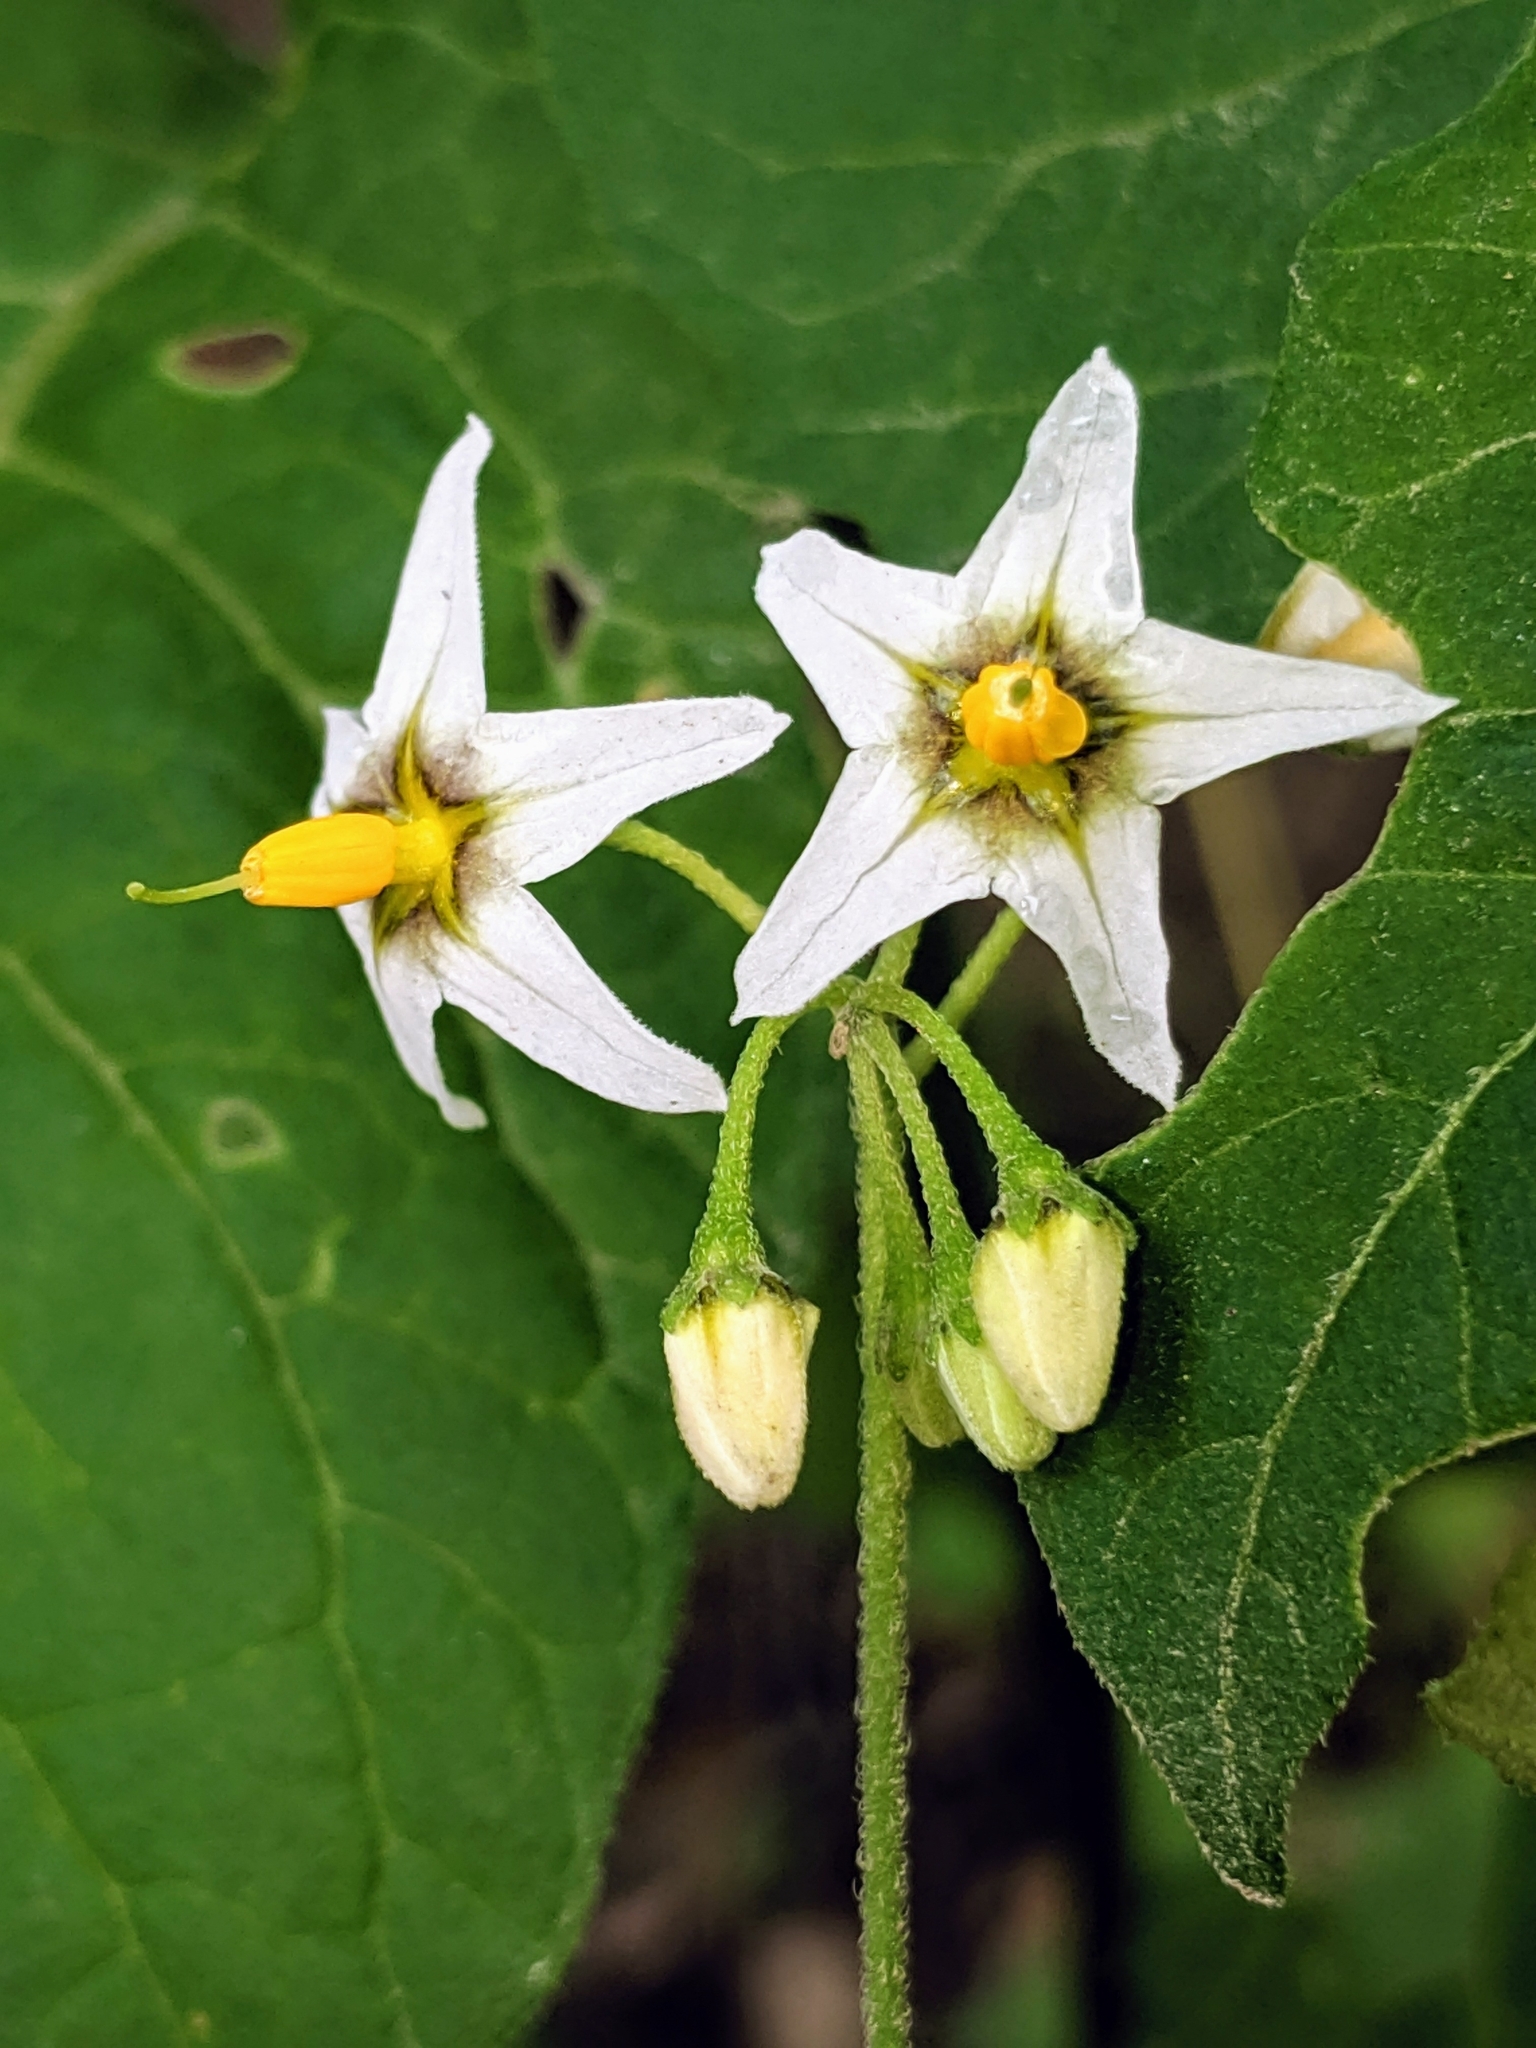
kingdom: Plantae
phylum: Tracheophyta
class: Magnoliopsida
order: Solanales
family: Solanaceae
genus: Solanum
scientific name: Solanum douglasii
